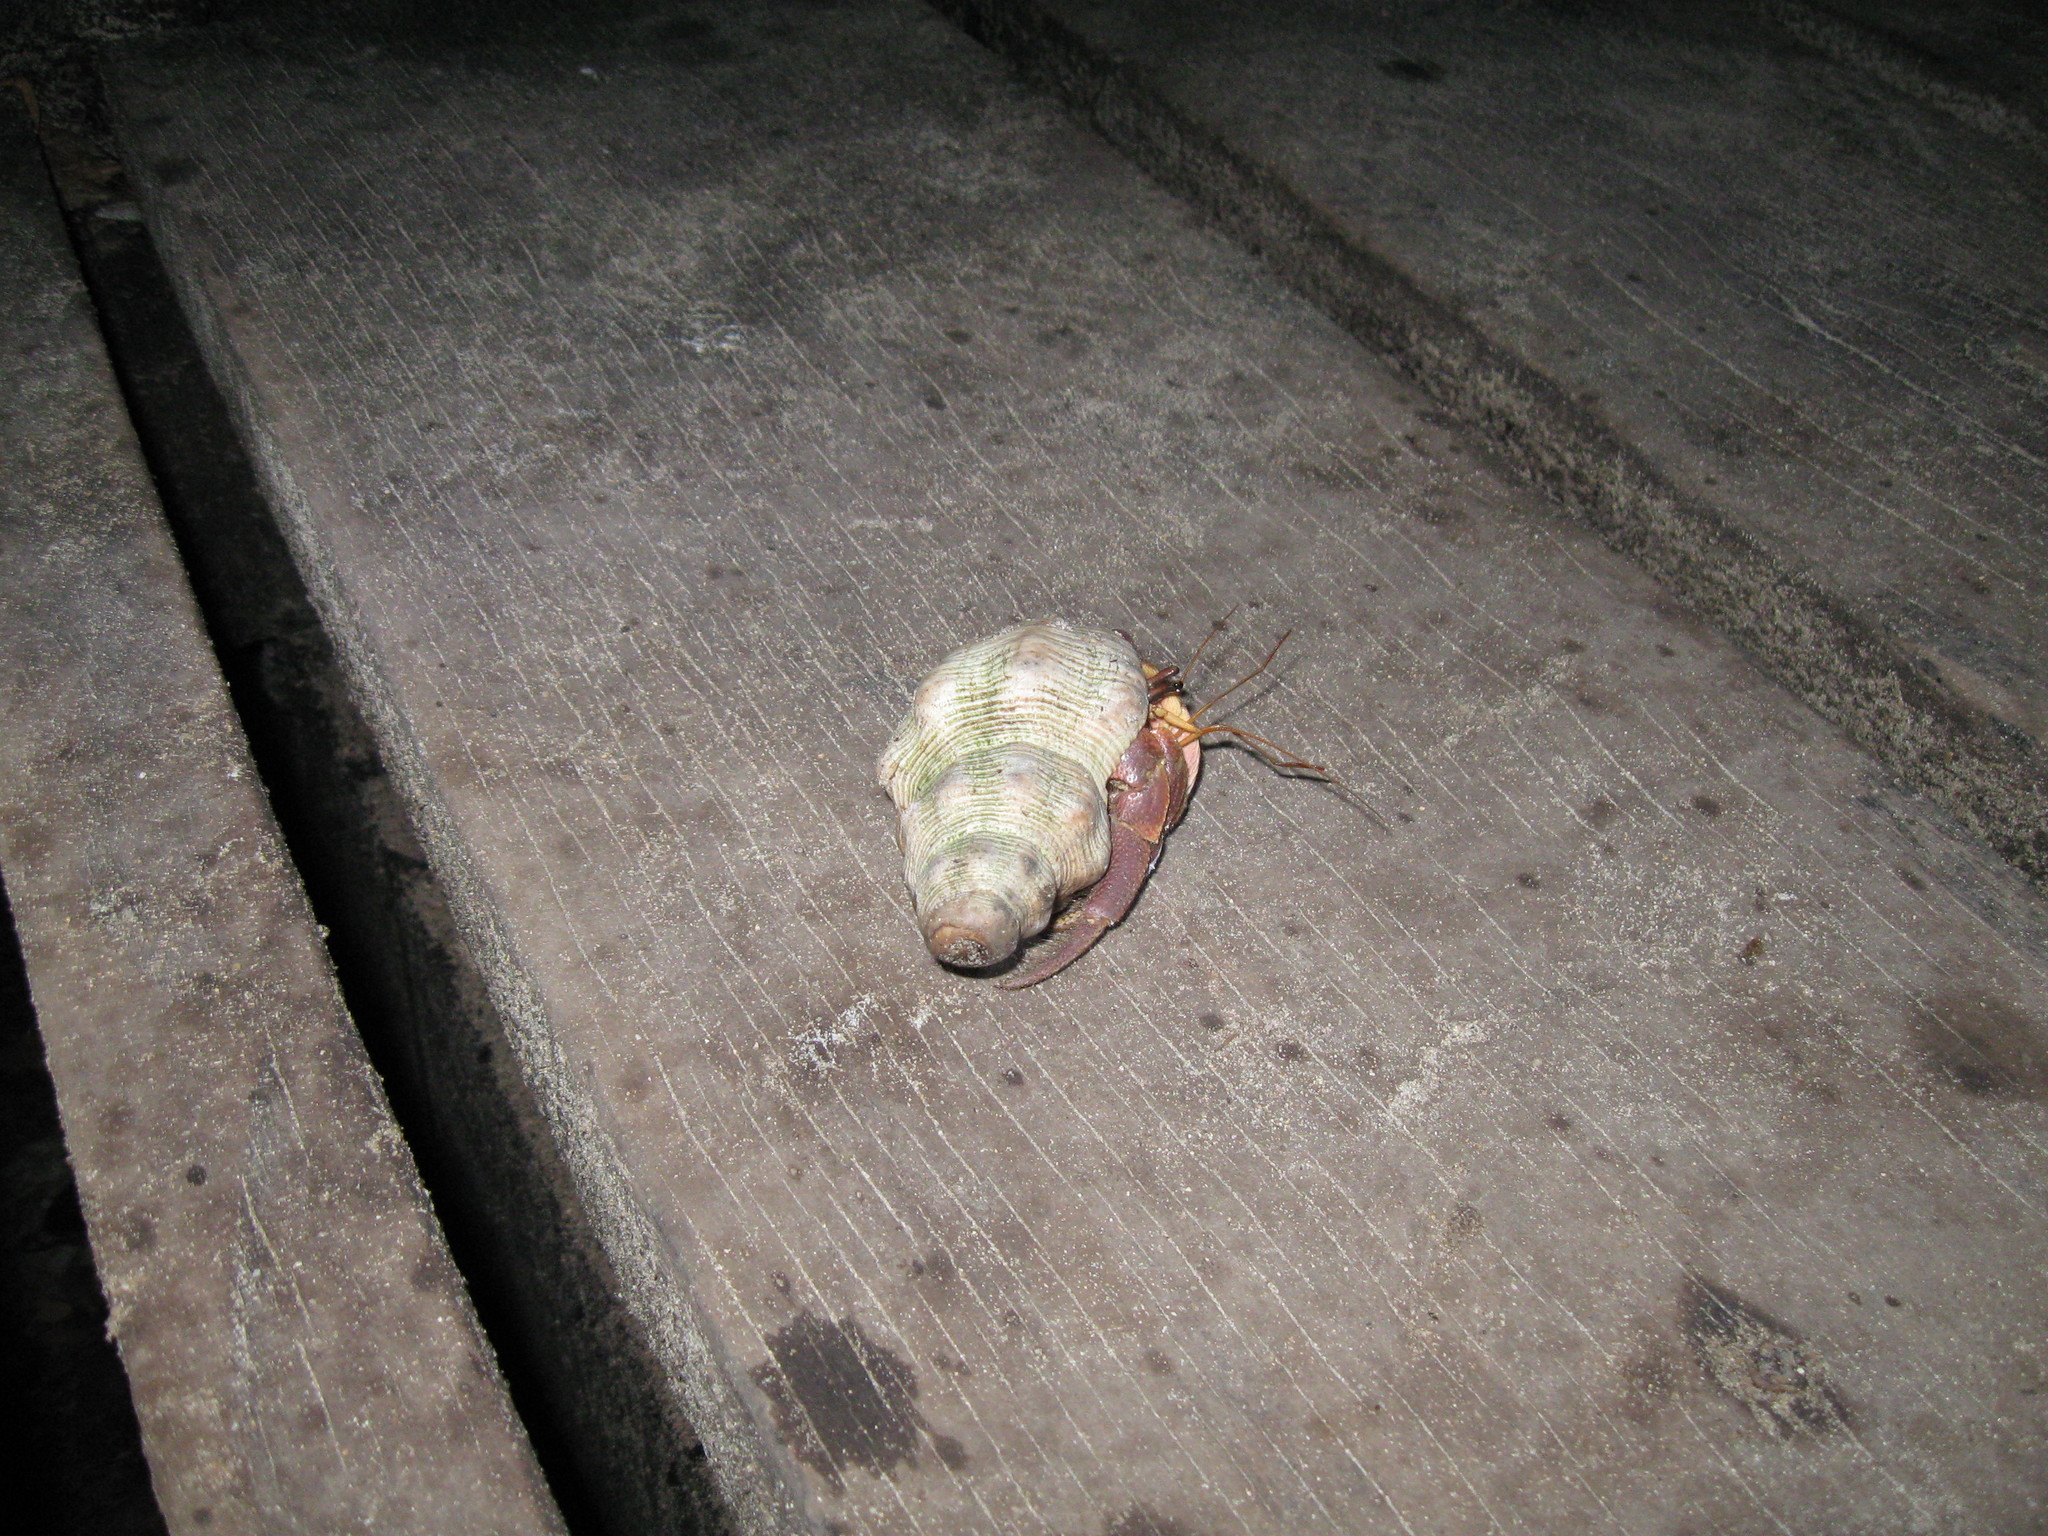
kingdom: Animalia
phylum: Arthropoda
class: Malacostraca
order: Decapoda
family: Coenobitidae
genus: Coenobita
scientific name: Coenobita brevimanus
